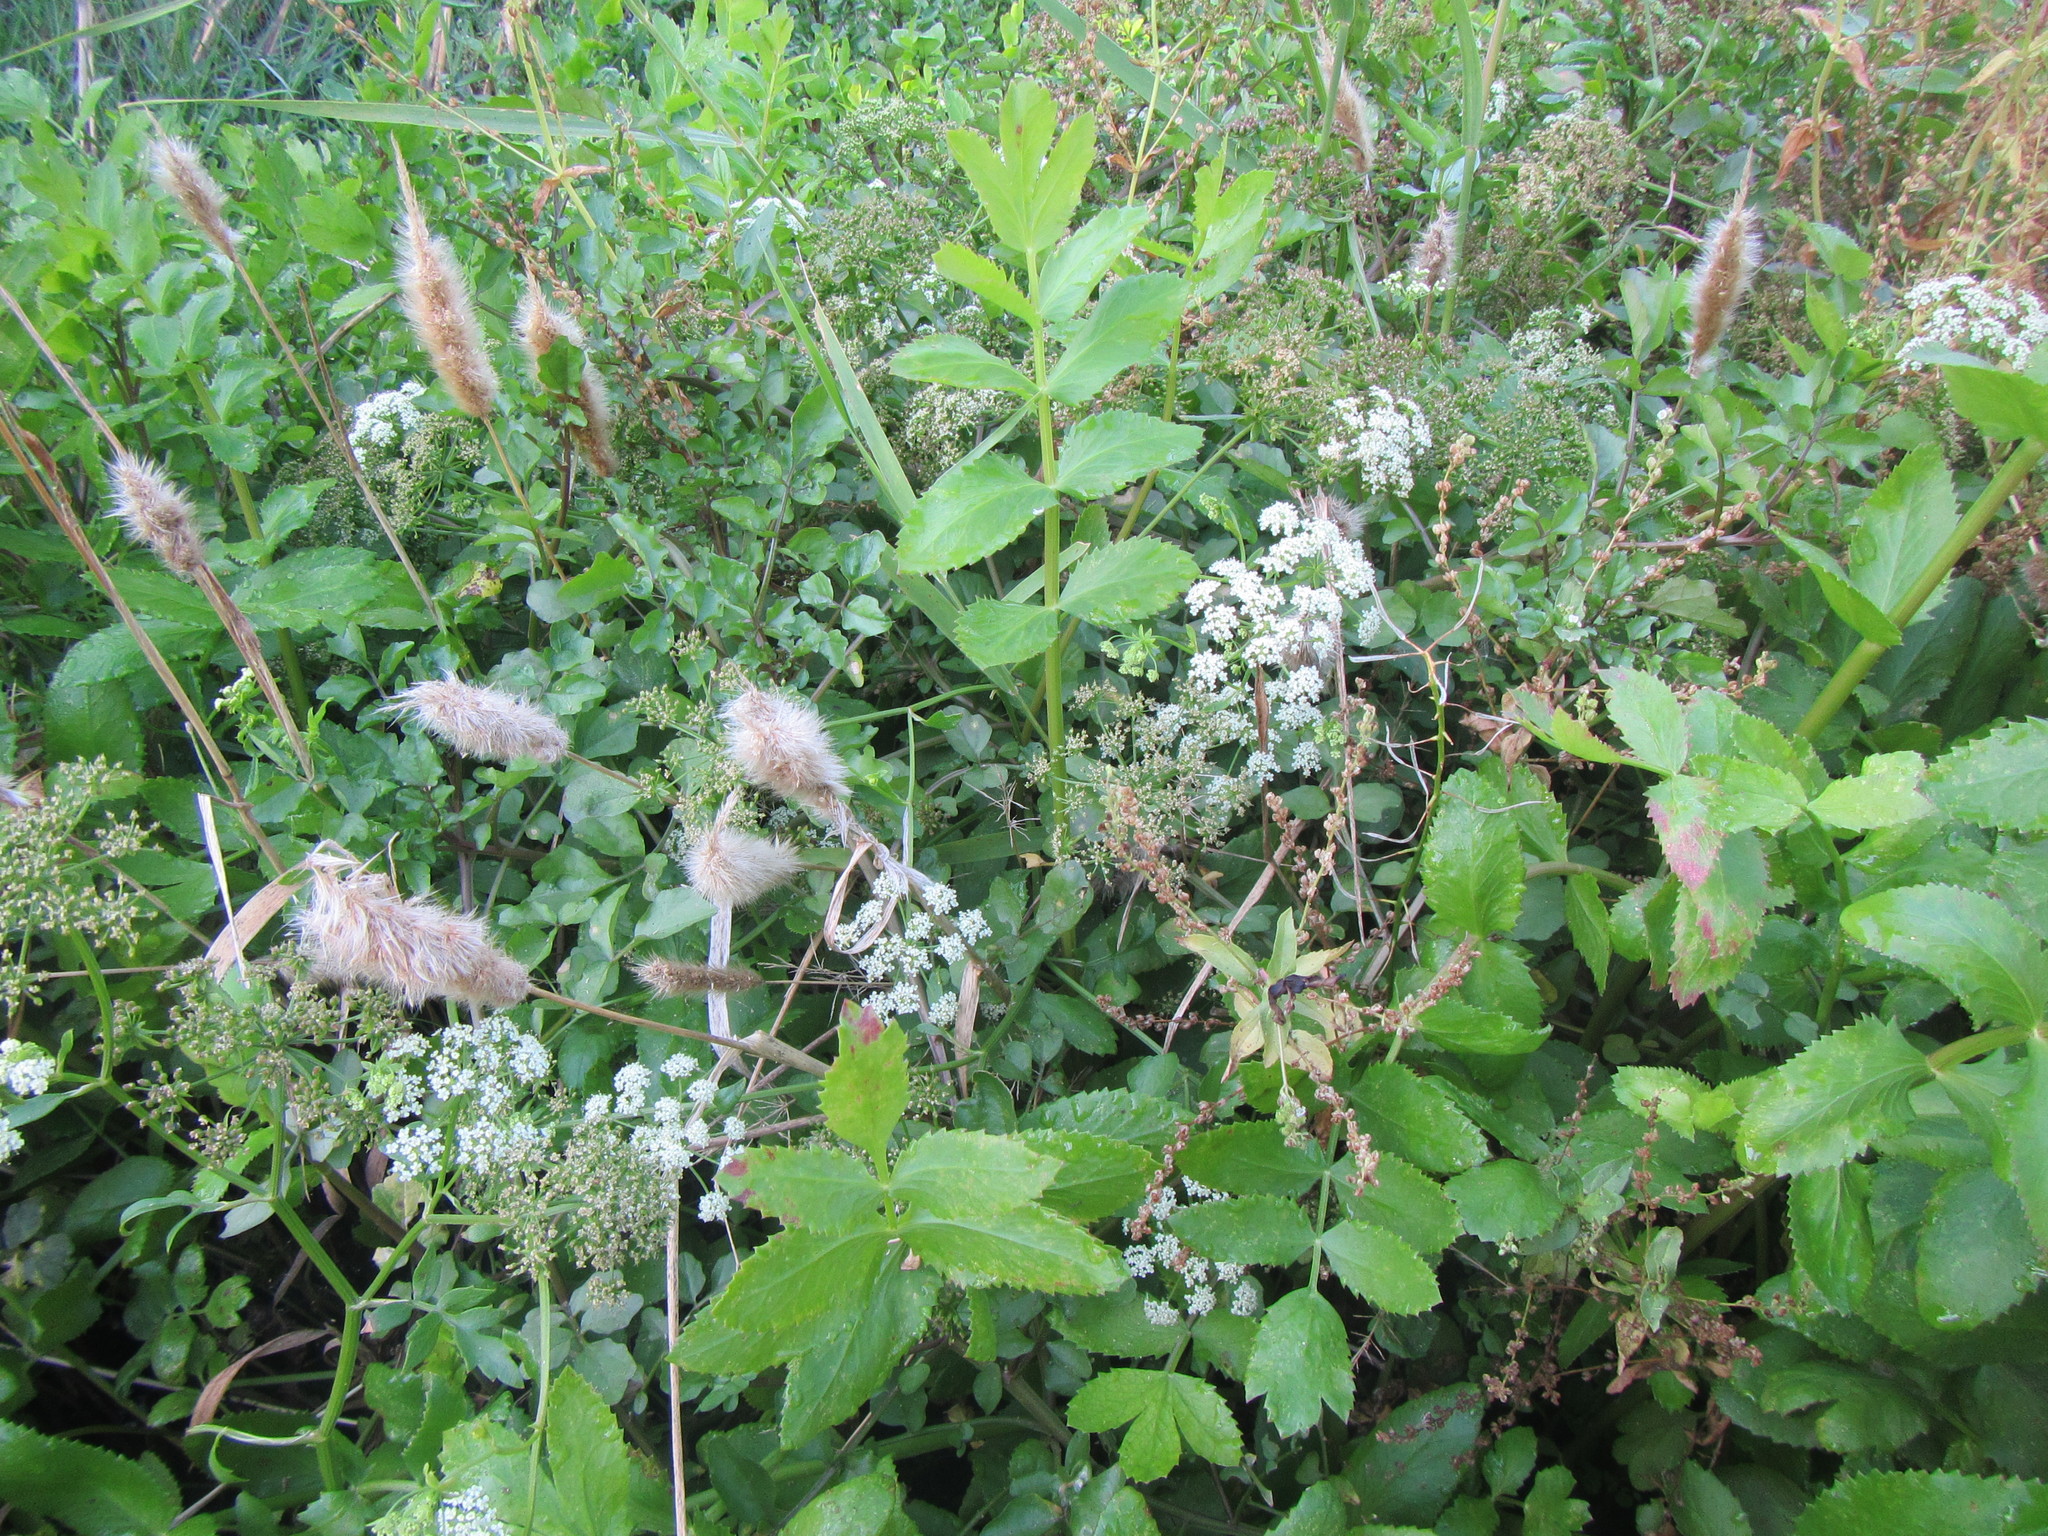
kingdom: Plantae
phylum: Tracheophyta
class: Magnoliopsida
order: Apiales
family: Apiaceae
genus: Berula
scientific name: Berula thunbergii
